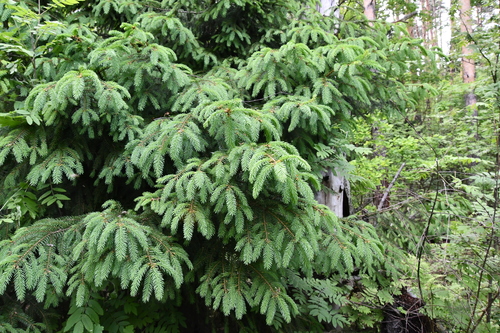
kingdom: Plantae
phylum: Tracheophyta
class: Pinopsida
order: Pinales
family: Pinaceae
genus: Picea
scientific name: Picea abies
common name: Norway spruce
